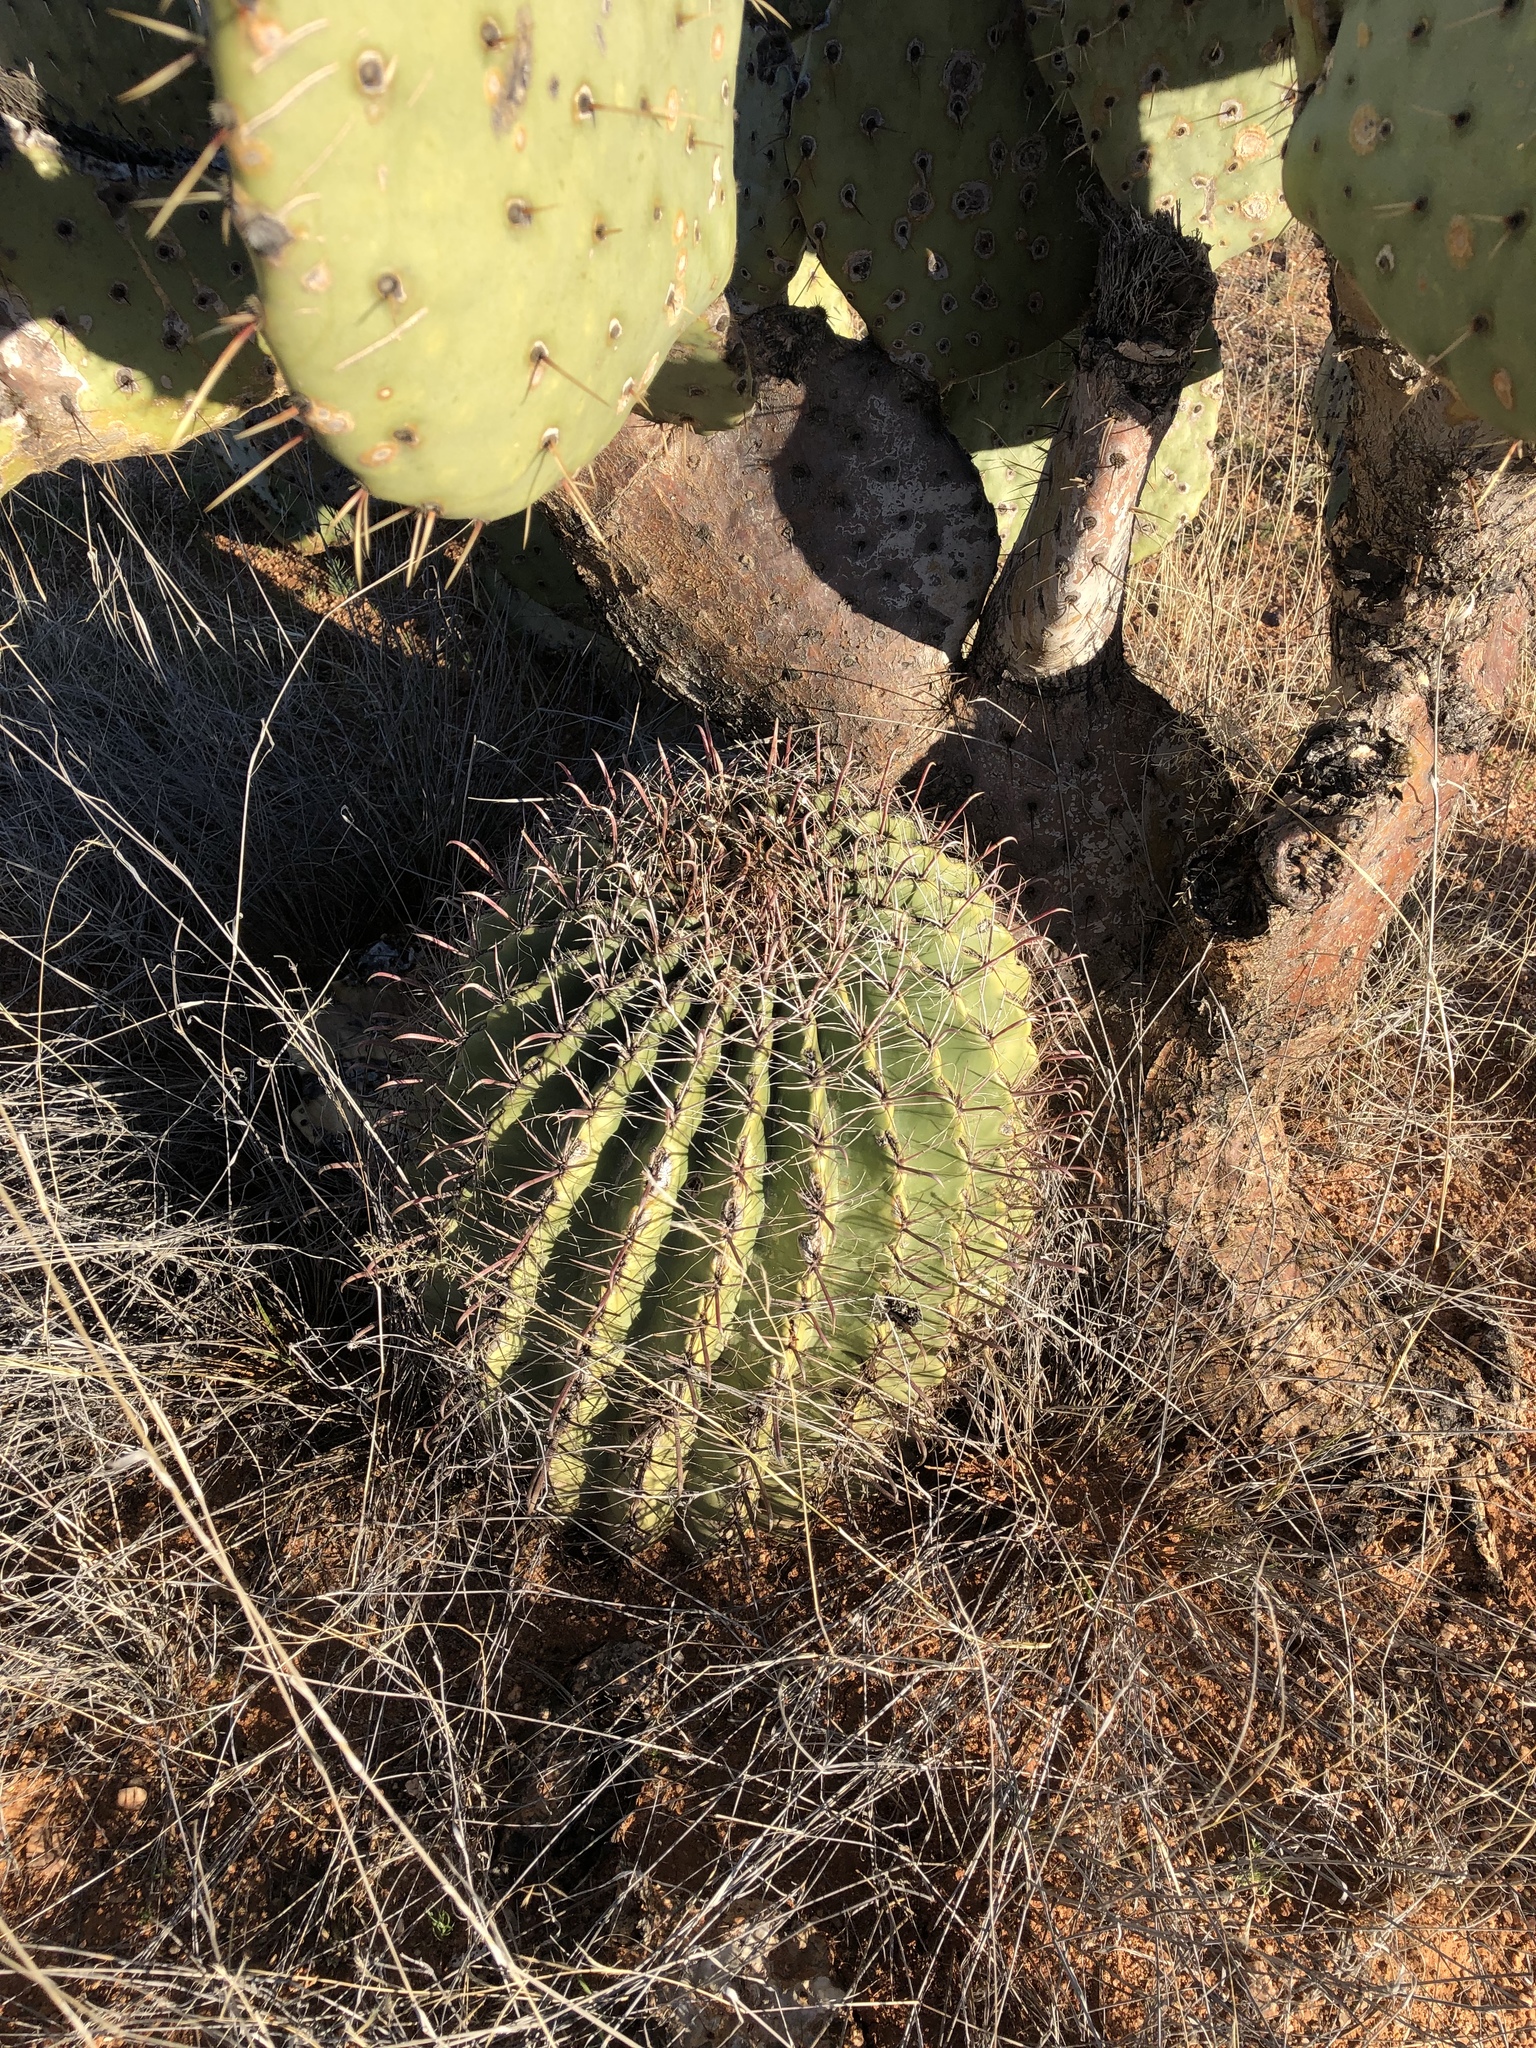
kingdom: Plantae
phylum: Tracheophyta
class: Magnoliopsida
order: Caryophyllales
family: Cactaceae
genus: Ferocactus
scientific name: Ferocactus wislizeni
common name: Candy barrel cactus
